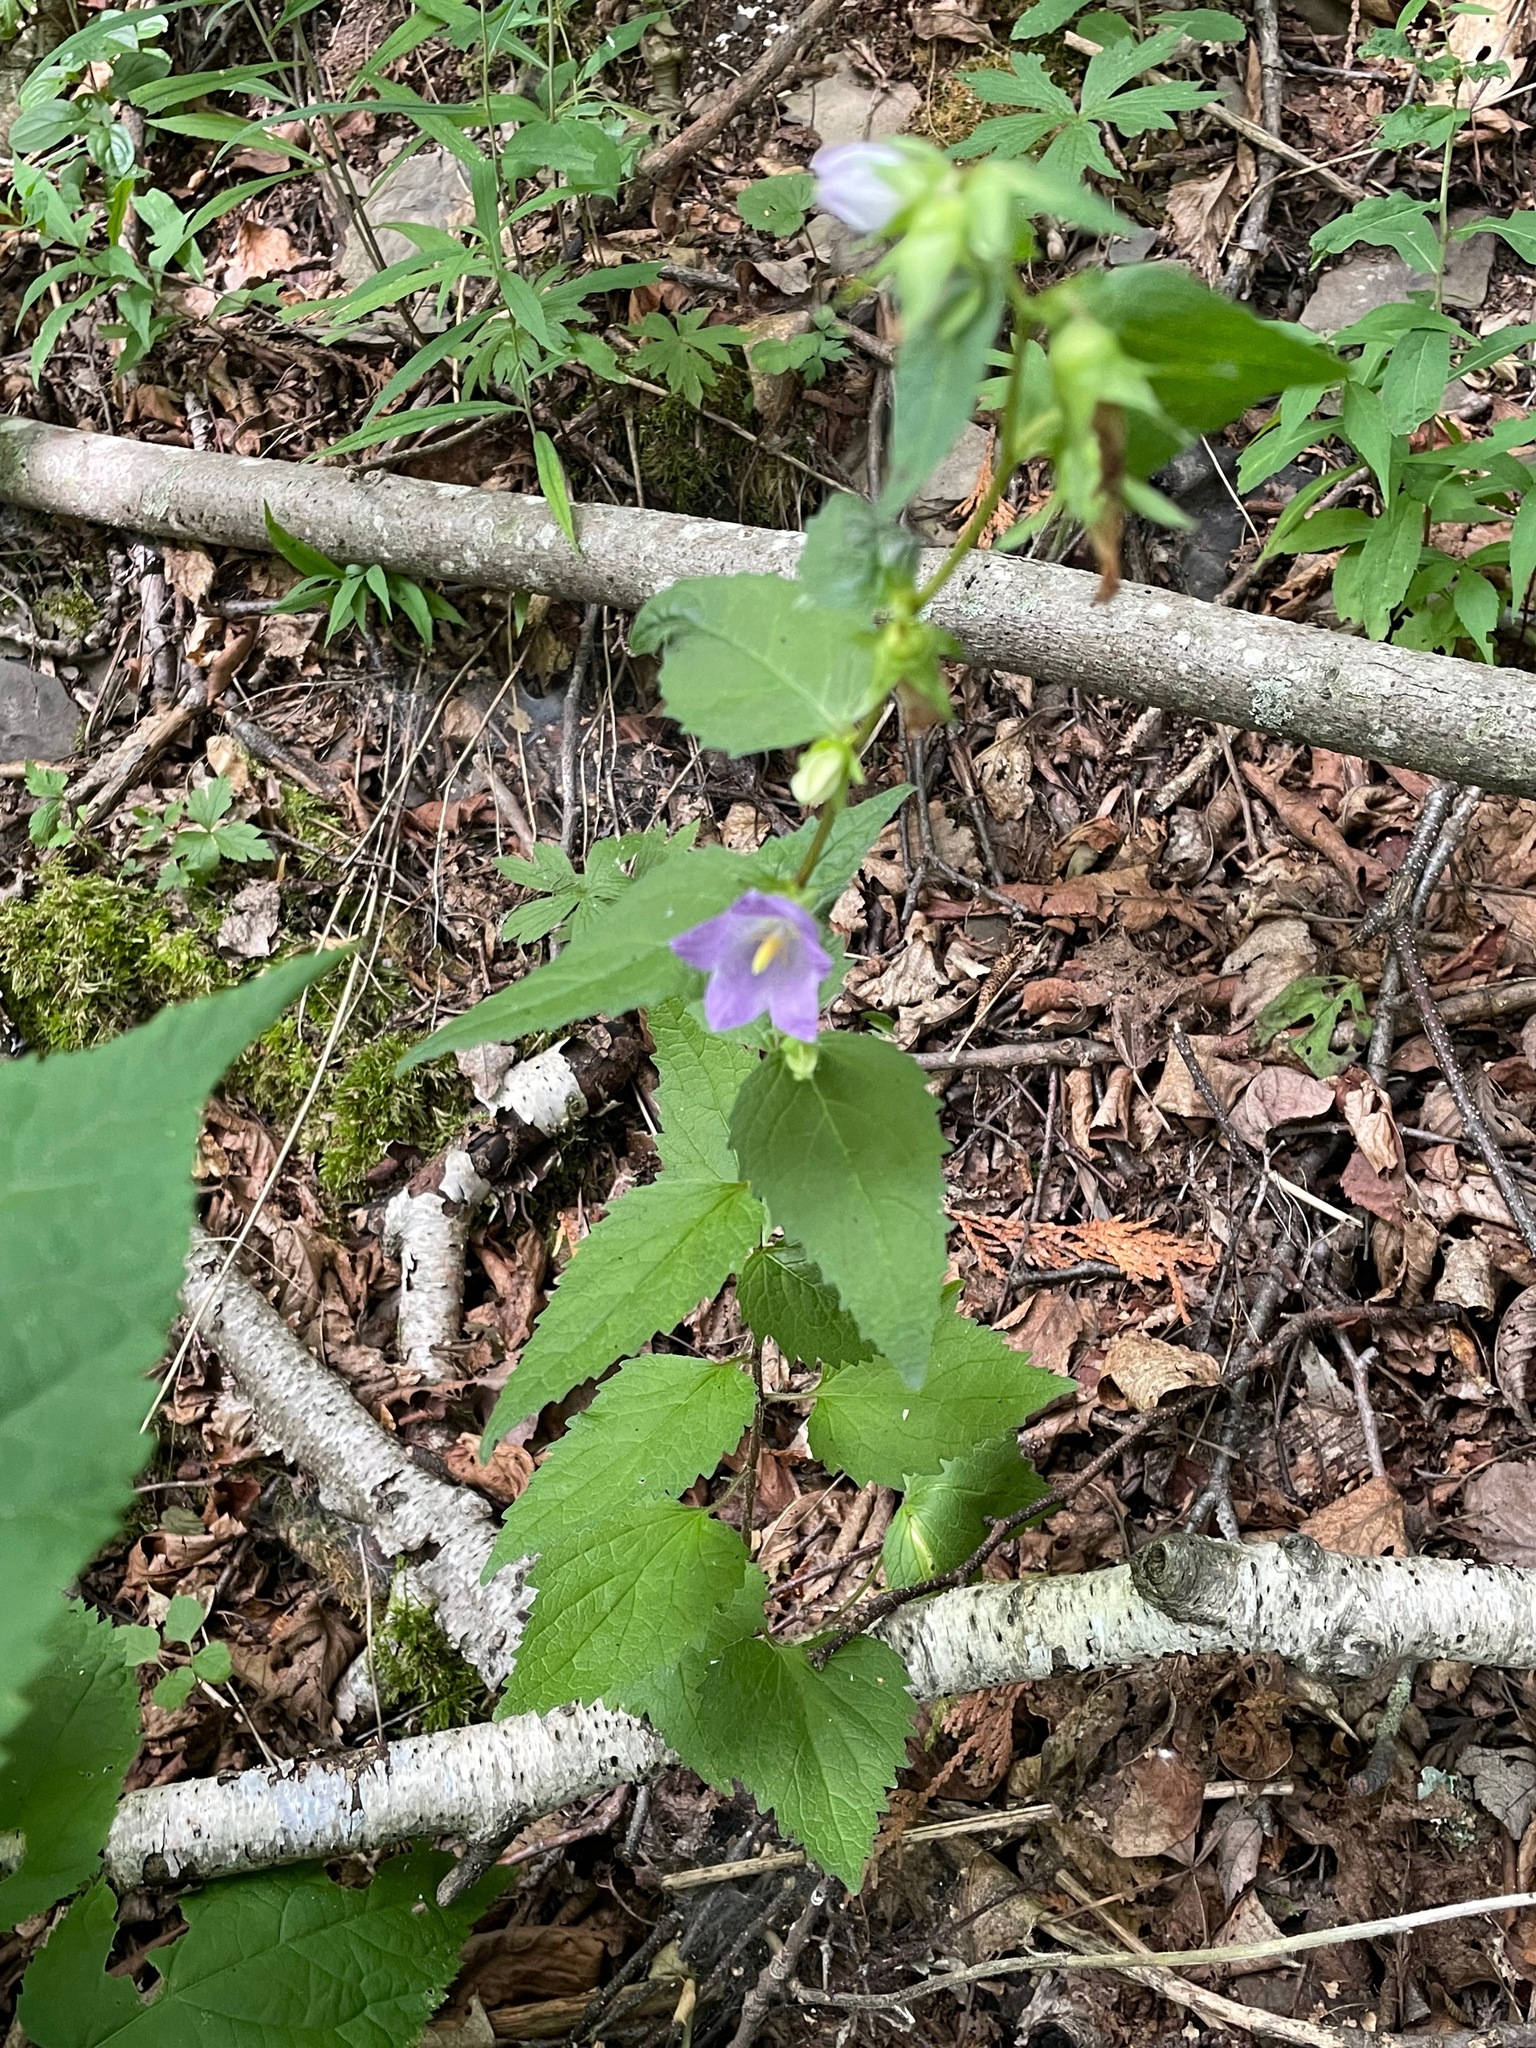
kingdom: Plantae
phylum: Tracheophyta
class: Magnoliopsida
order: Asterales
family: Campanulaceae
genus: Campanula
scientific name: Campanula trachelium
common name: Nettle-leaved bellflower
